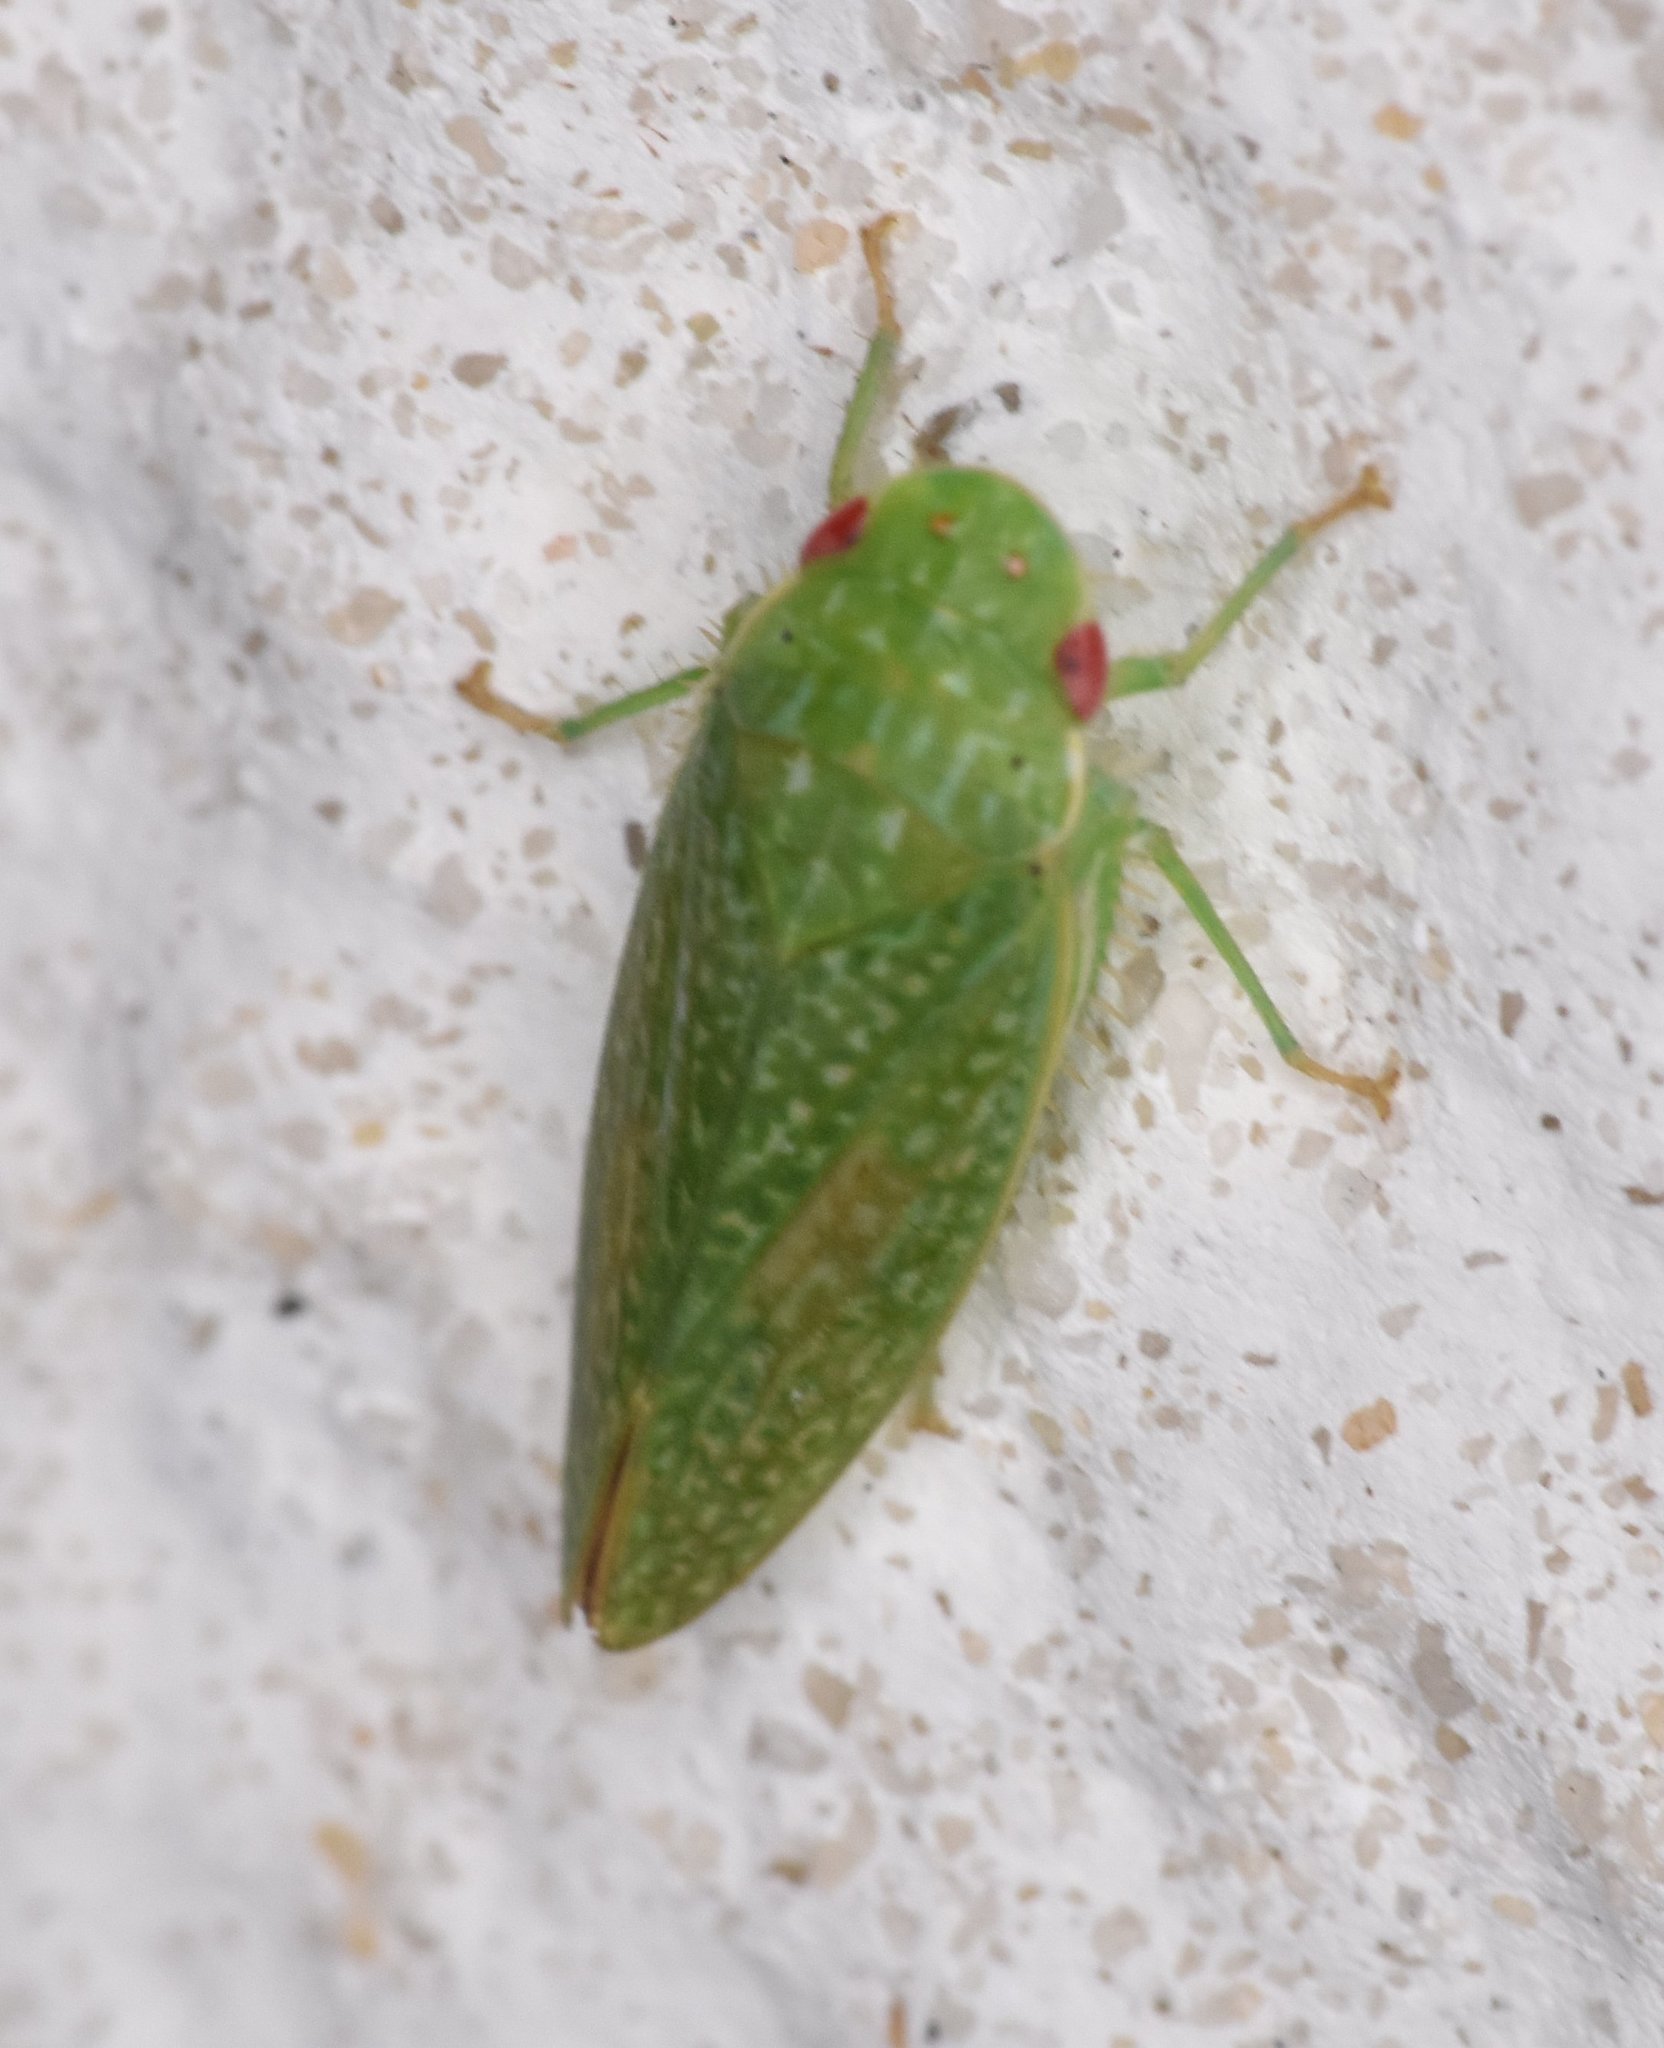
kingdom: Animalia
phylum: Arthropoda
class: Insecta
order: Hemiptera
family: Cicadellidae
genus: Rugosana
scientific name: Rugosana querci
